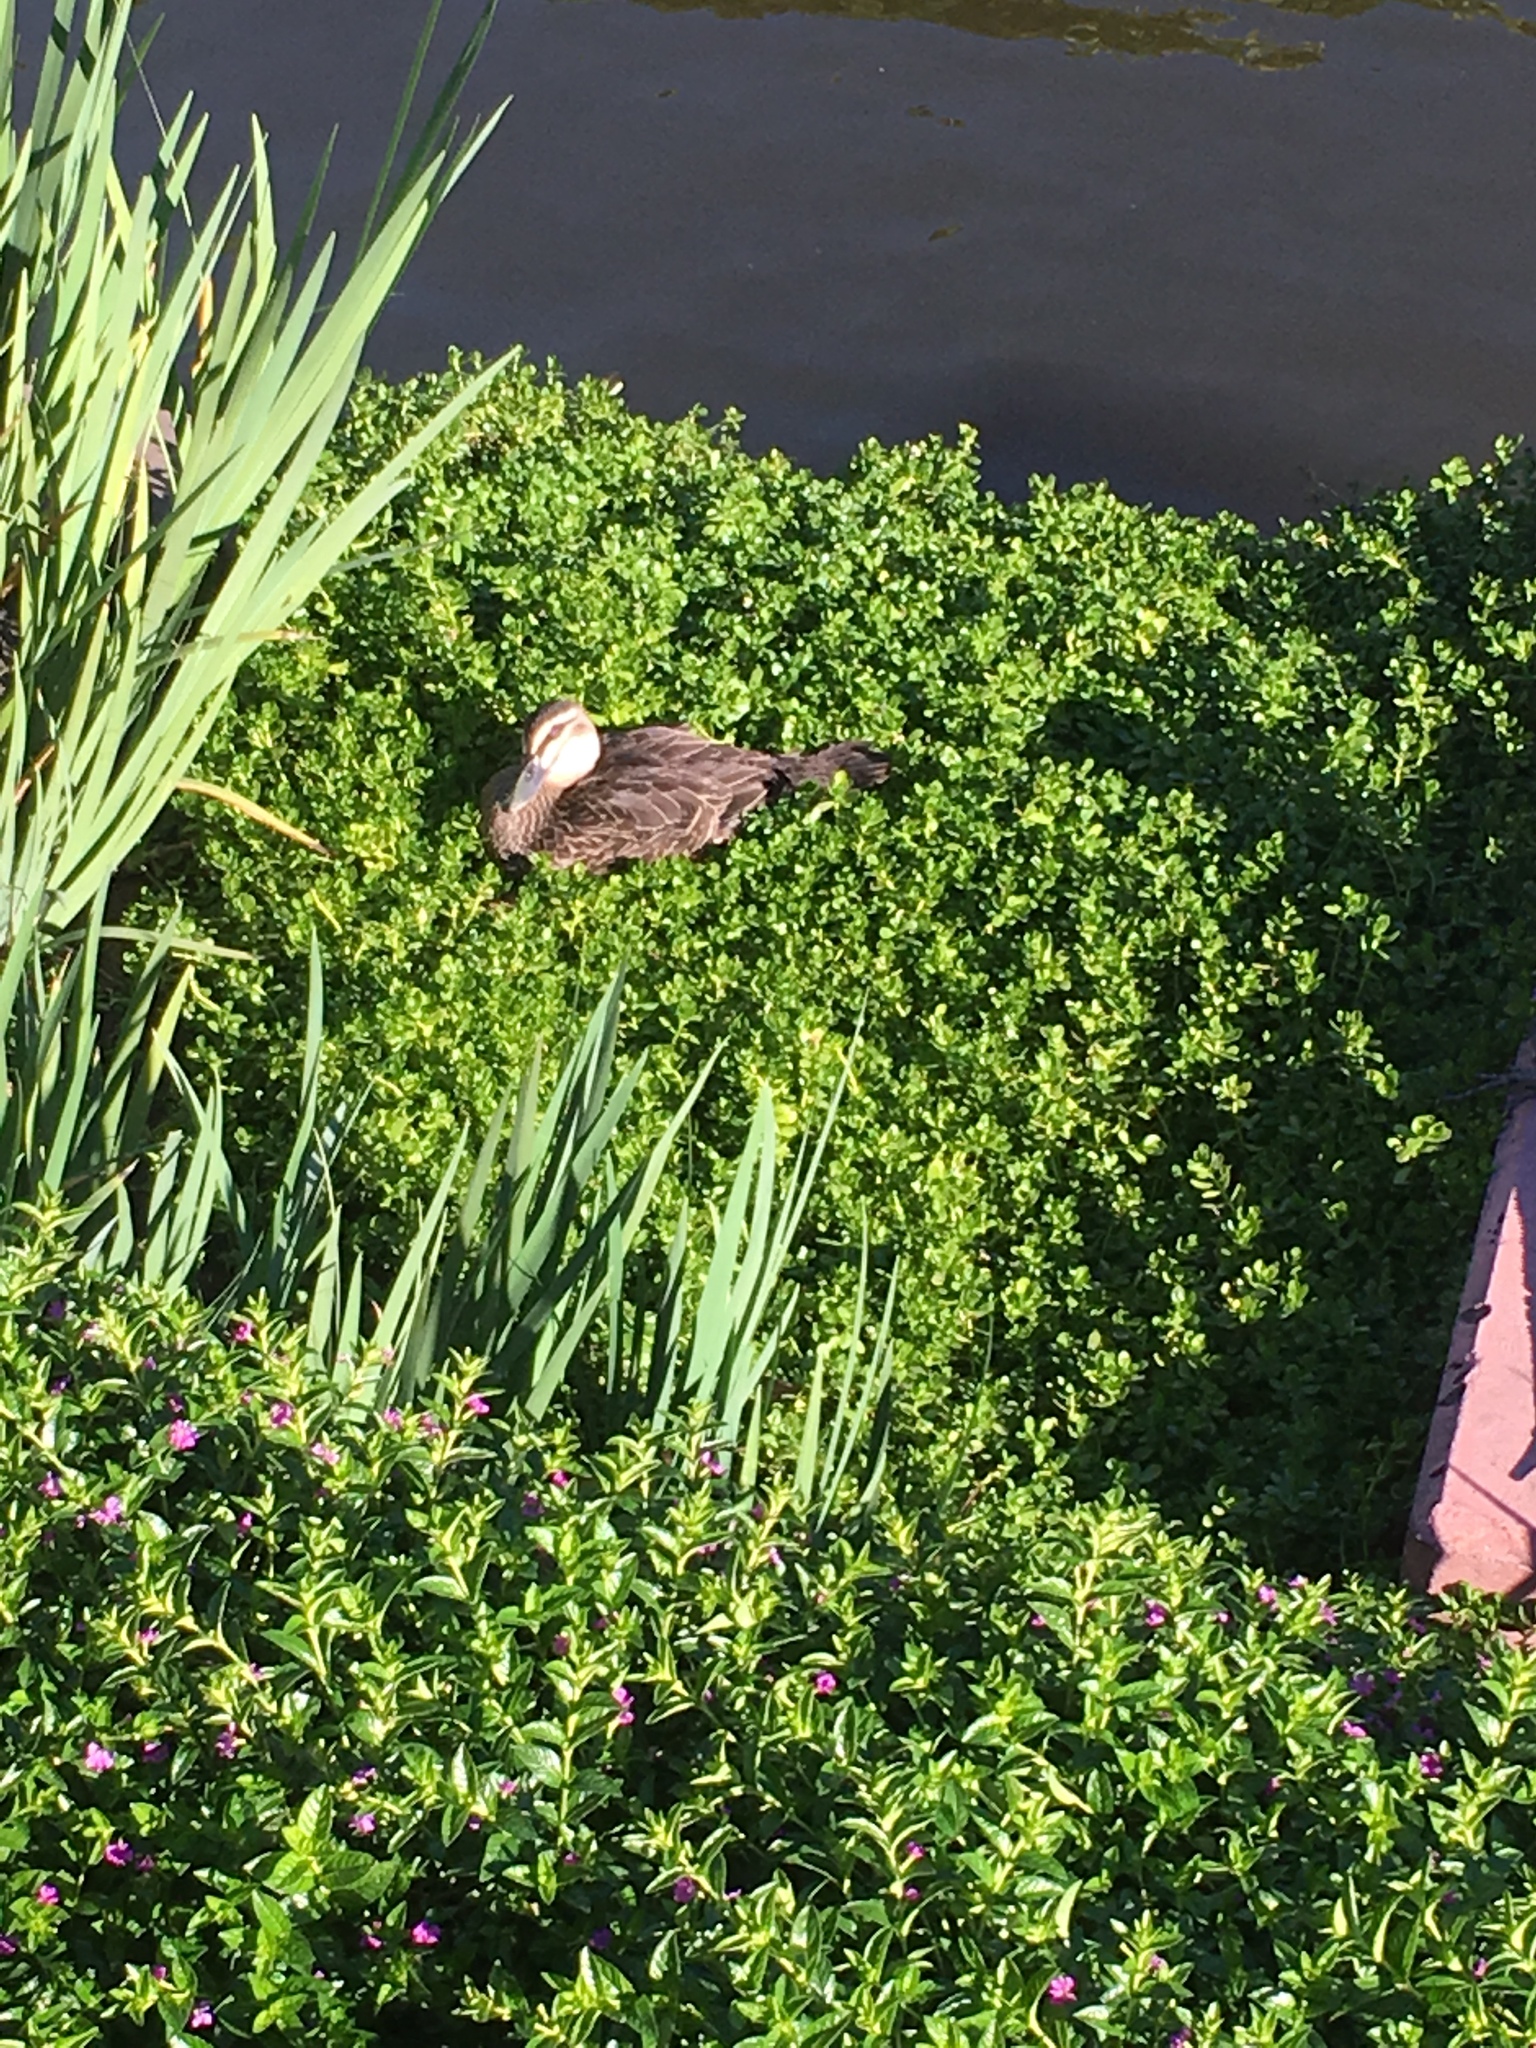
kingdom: Animalia
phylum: Chordata
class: Aves
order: Anseriformes
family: Anatidae
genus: Anas
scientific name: Anas superciliosa
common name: Pacific black duck
